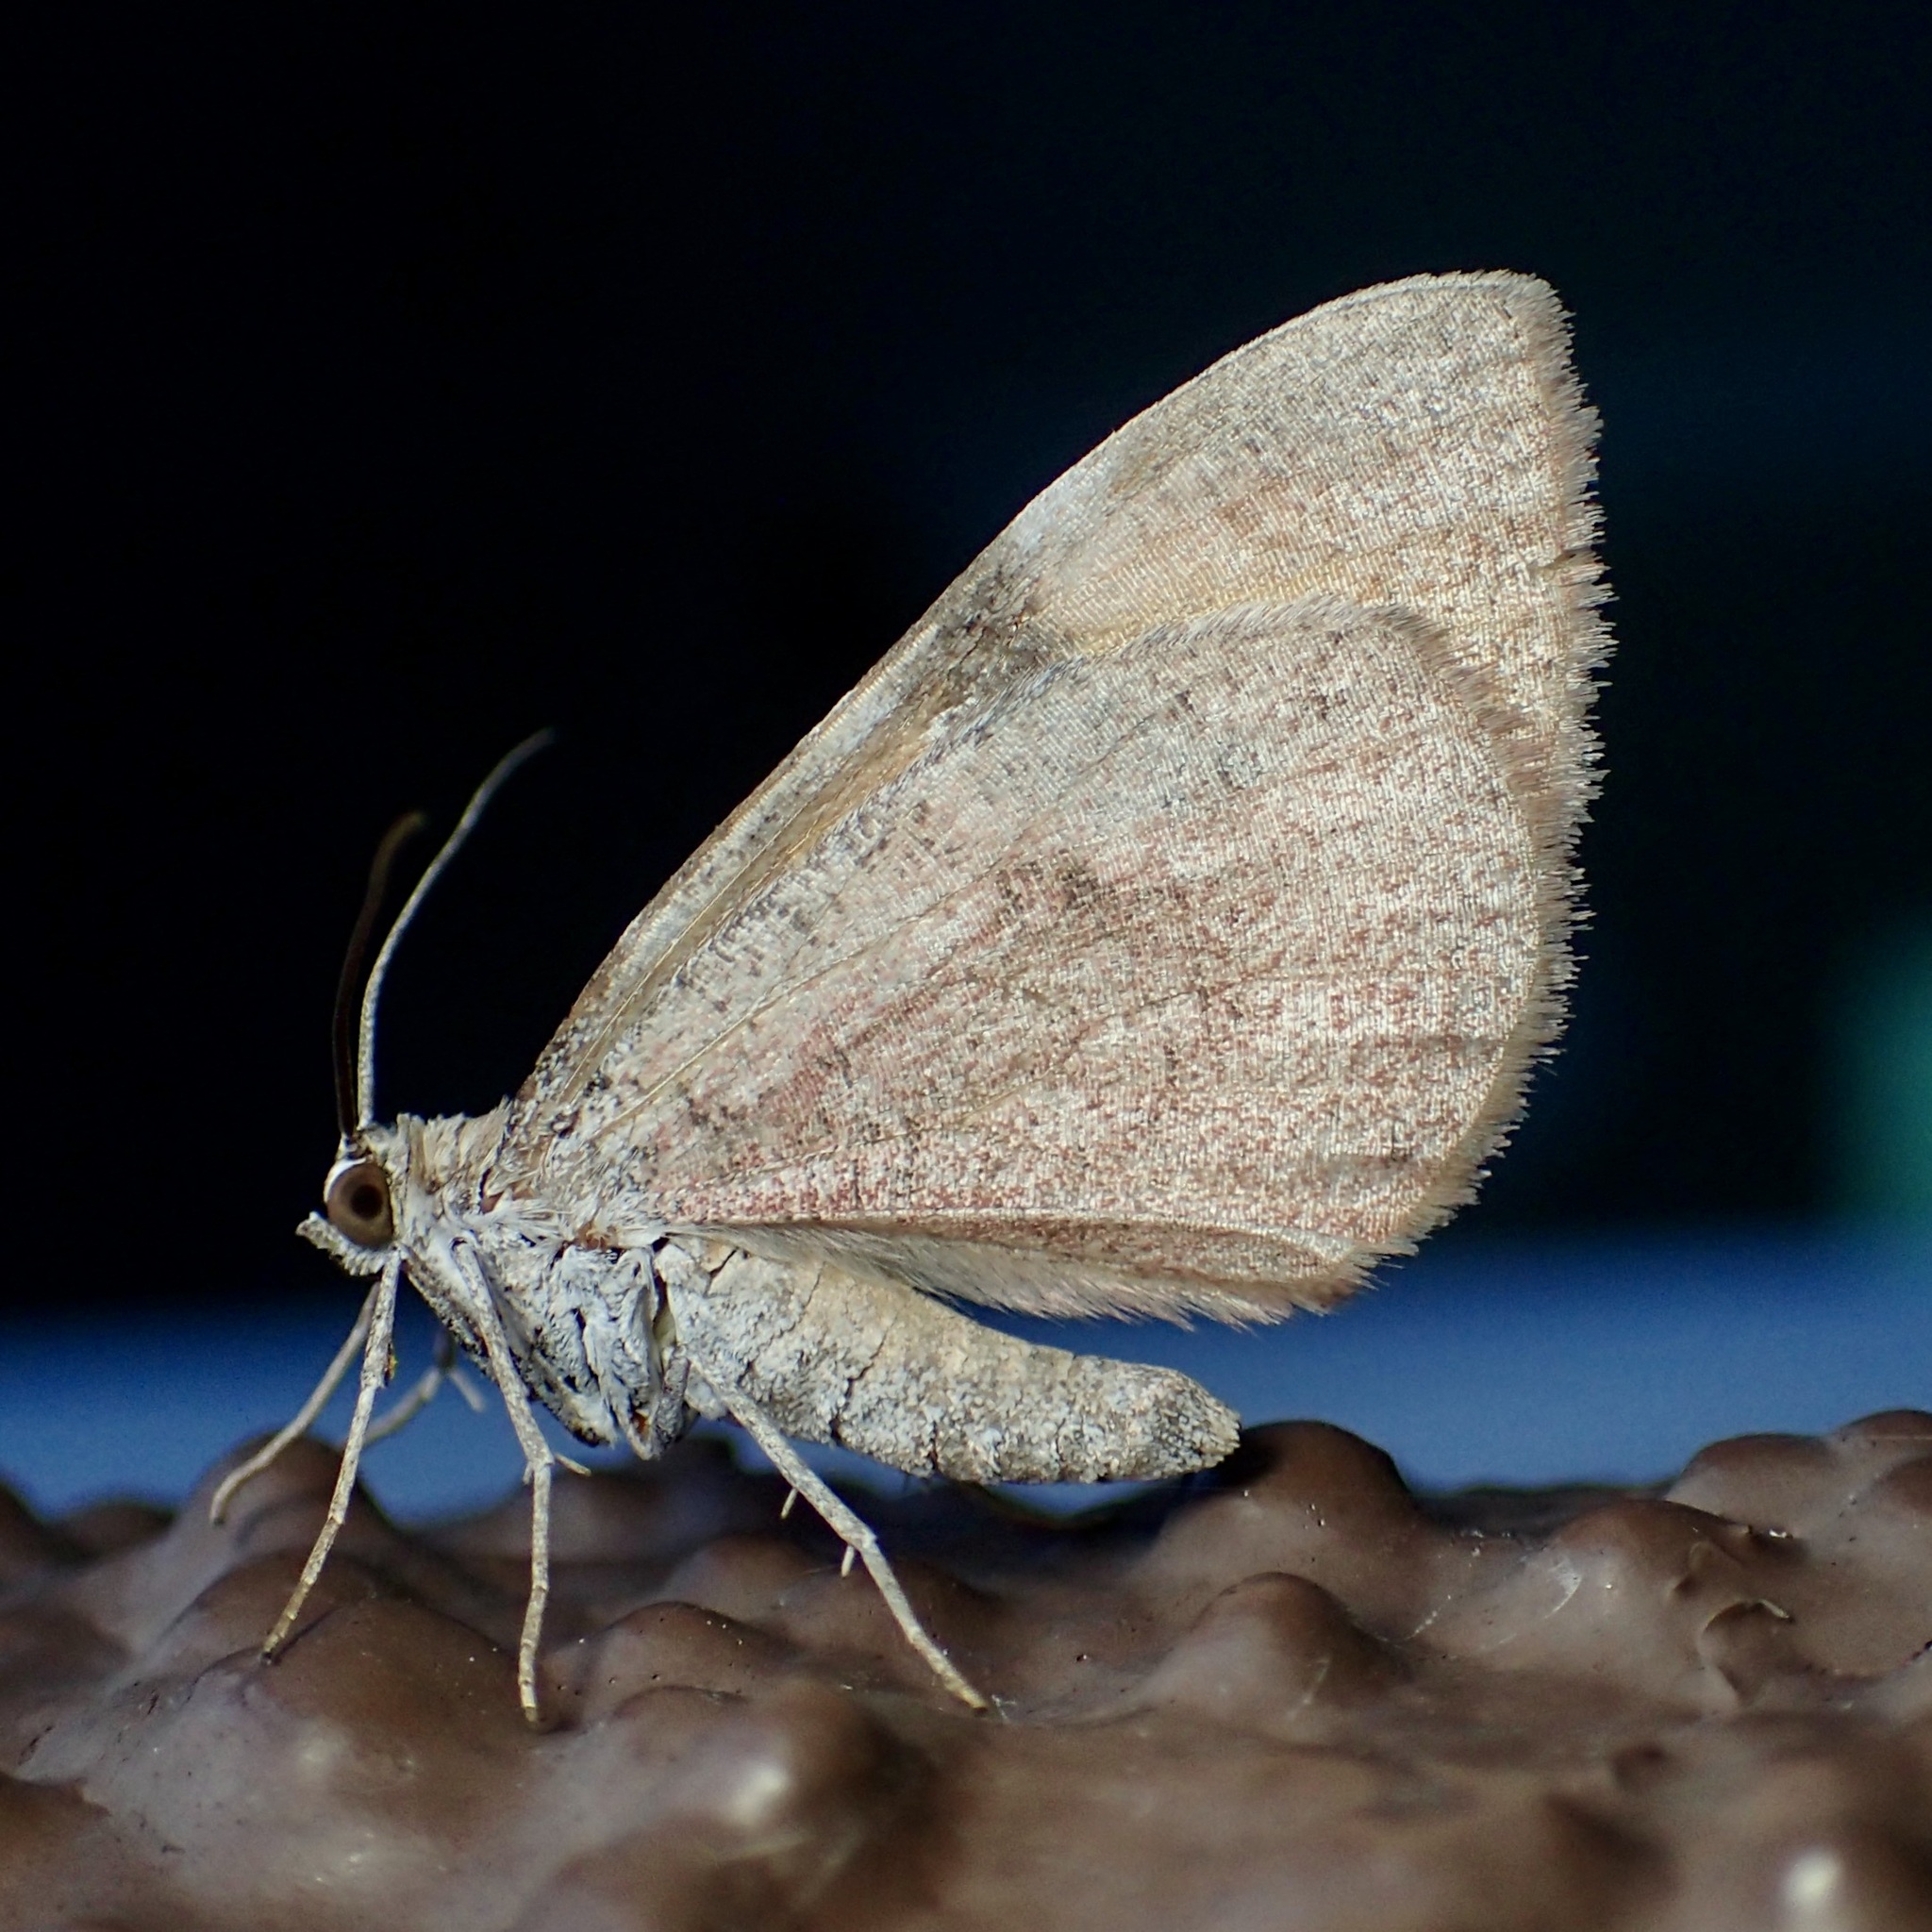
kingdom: Animalia
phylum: Arthropoda
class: Insecta
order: Lepidoptera
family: Geometridae
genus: Stamnodes
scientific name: Stamnodes seiferti
